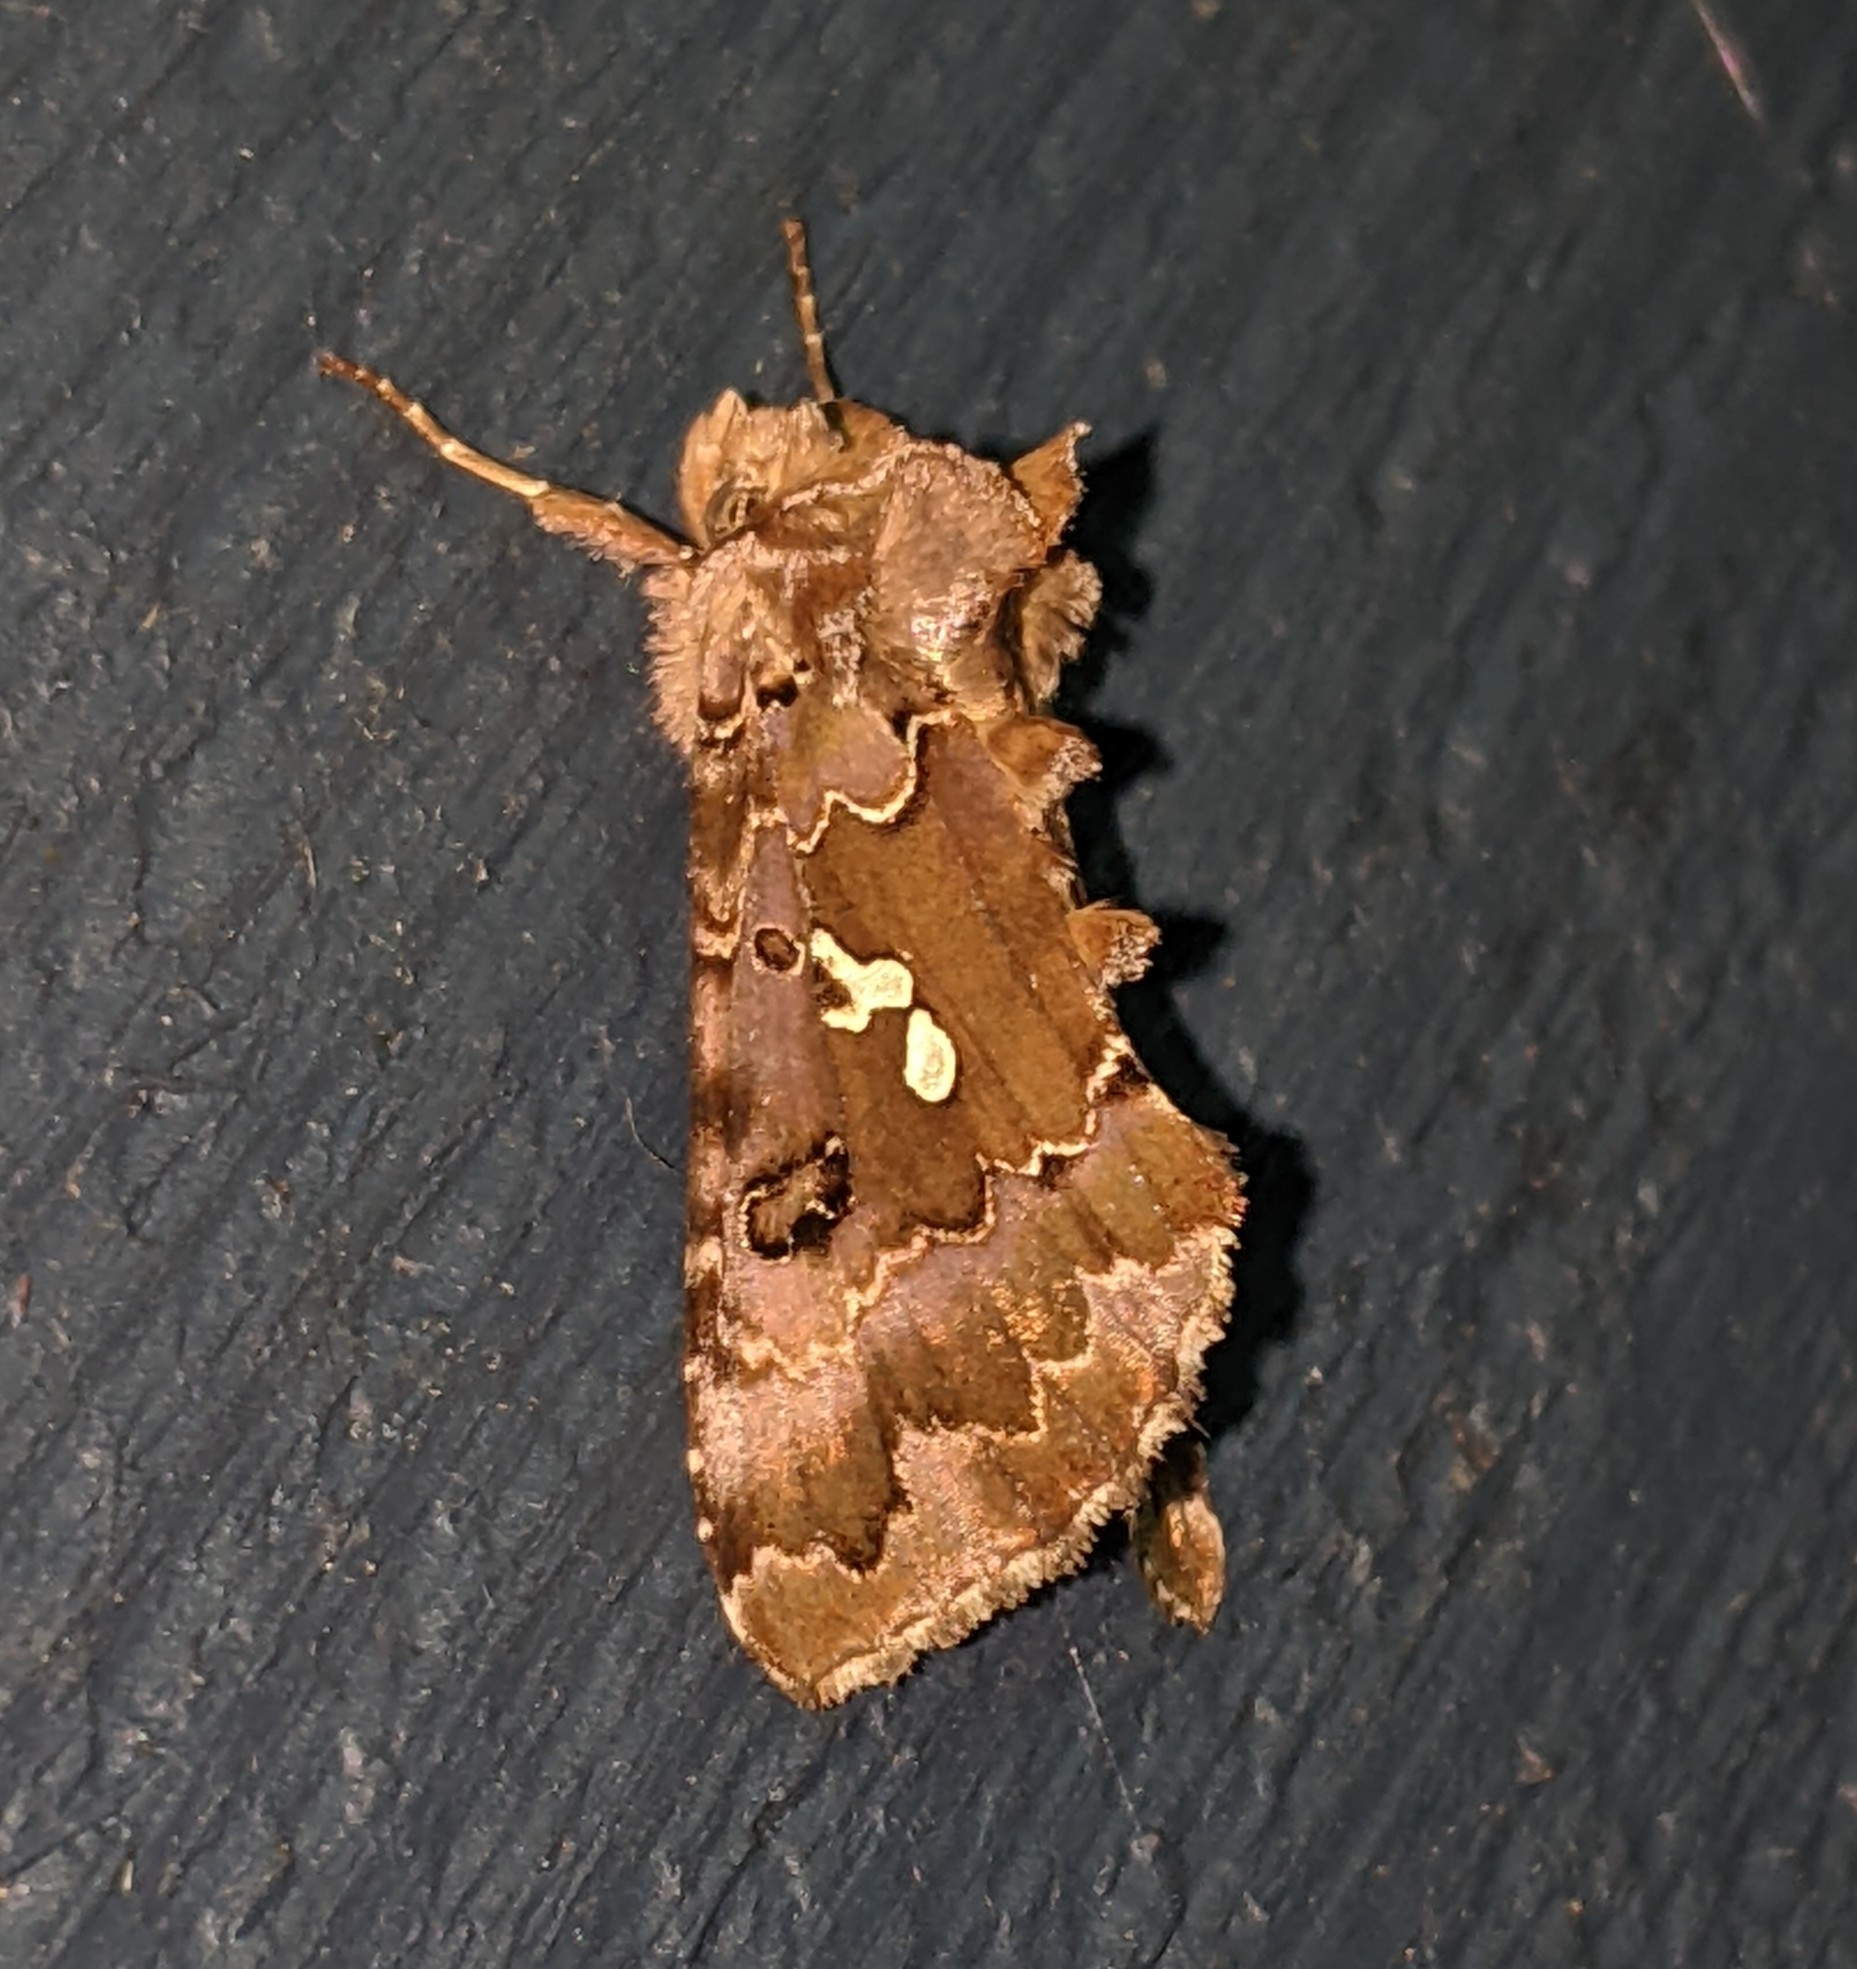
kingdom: Animalia
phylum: Arthropoda
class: Insecta
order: Lepidoptera
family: Noctuidae
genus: Autographa
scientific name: Autographa corusca
